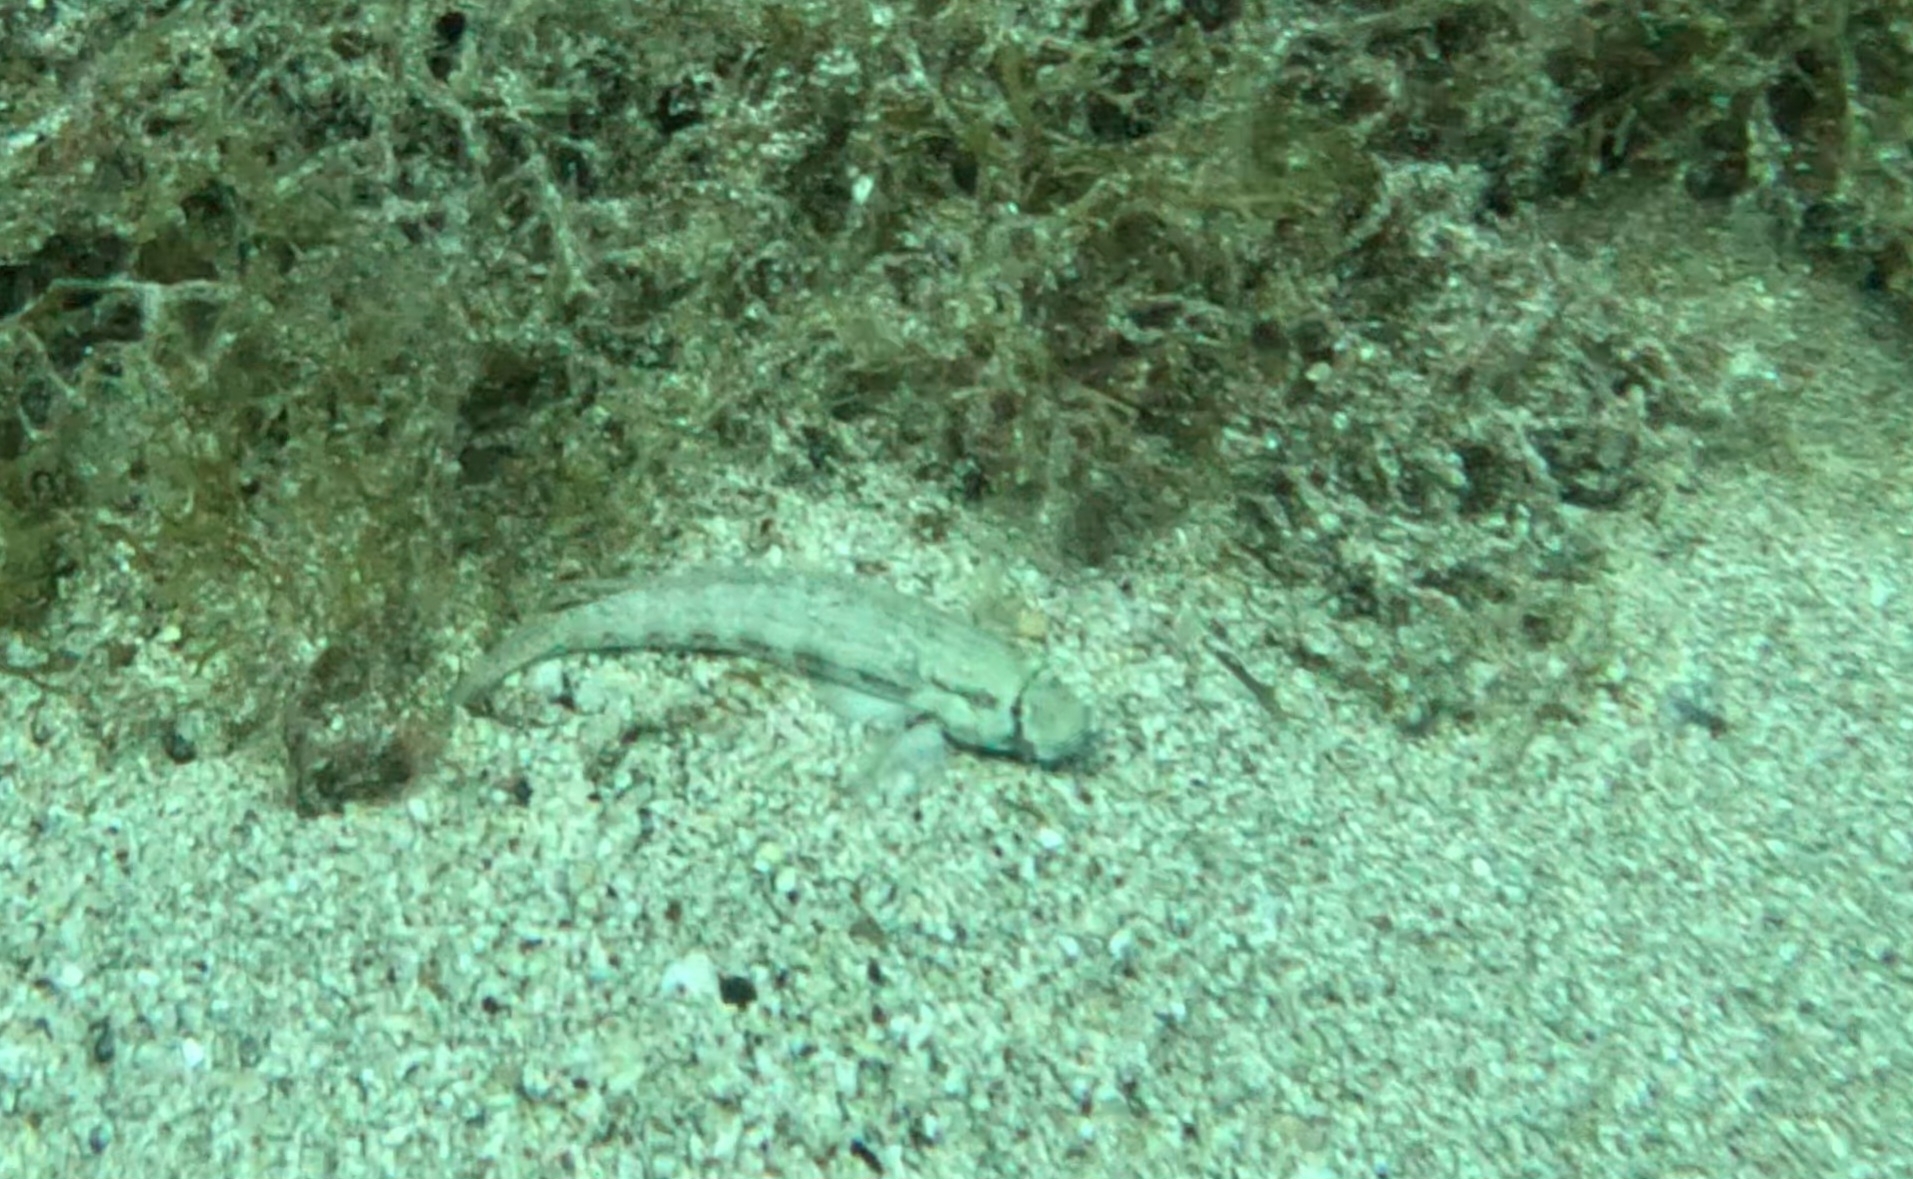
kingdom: Animalia
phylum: Chordata
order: Perciformes
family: Gobiidae
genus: Gnatholepis
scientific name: Gnatholepis thompsoni
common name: Goldspot goby
